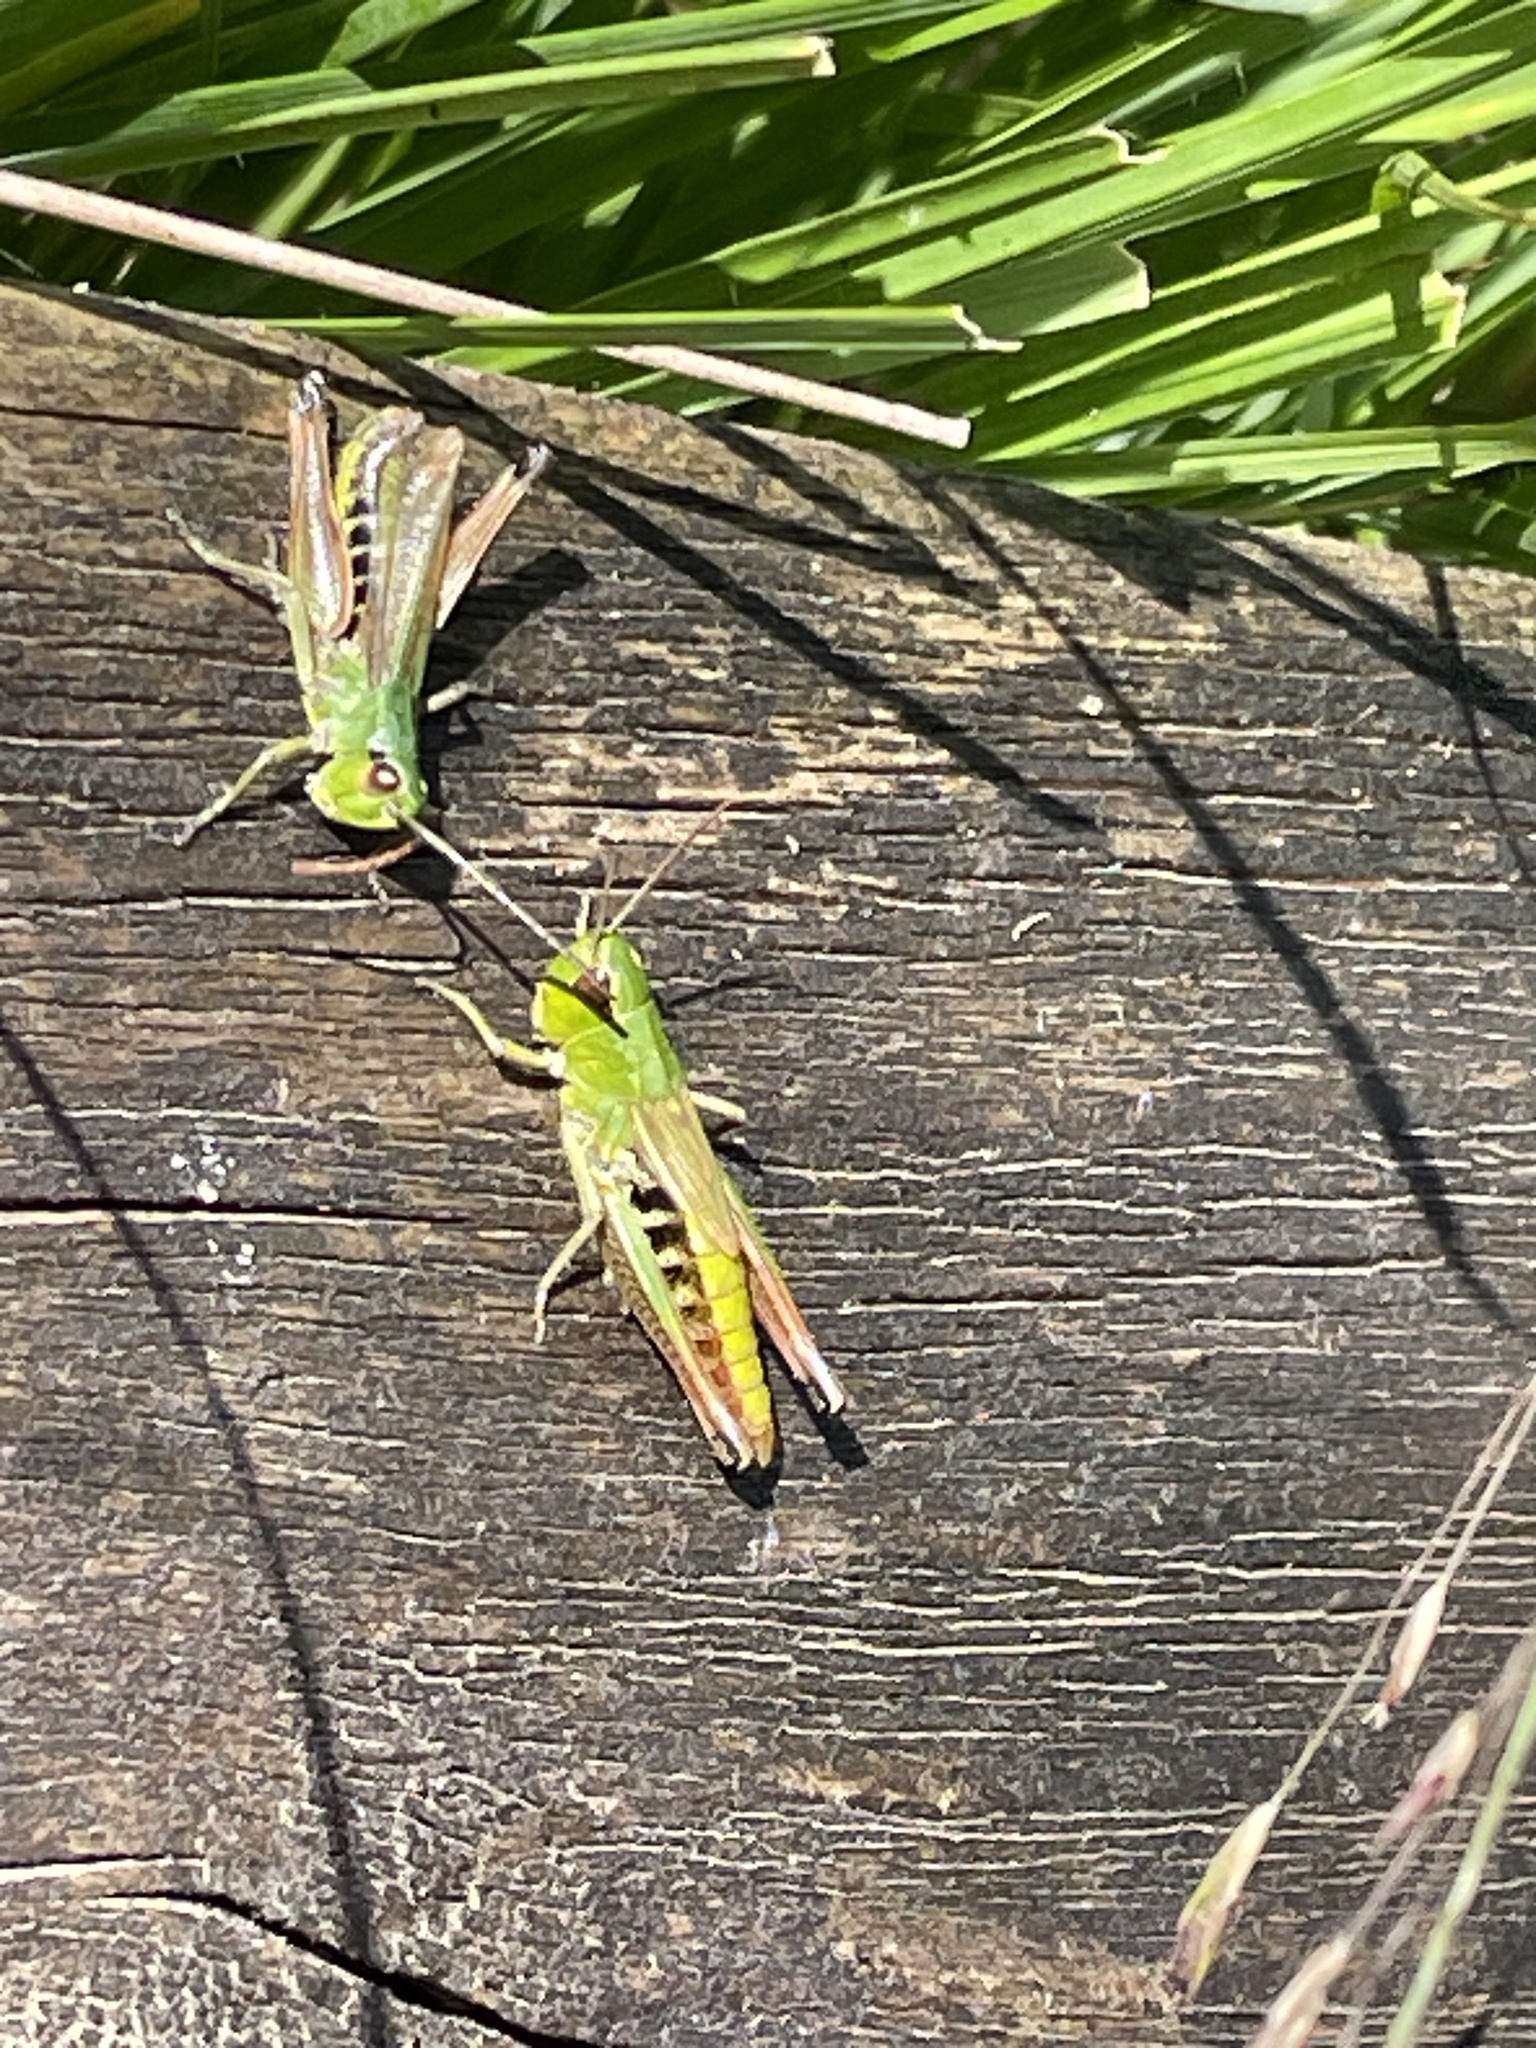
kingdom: Animalia
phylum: Arthropoda
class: Insecta
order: Orthoptera
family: Acrididae
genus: Pseudochorthippus
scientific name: Pseudochorthippus parallelus
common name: Meadow grasshopper
